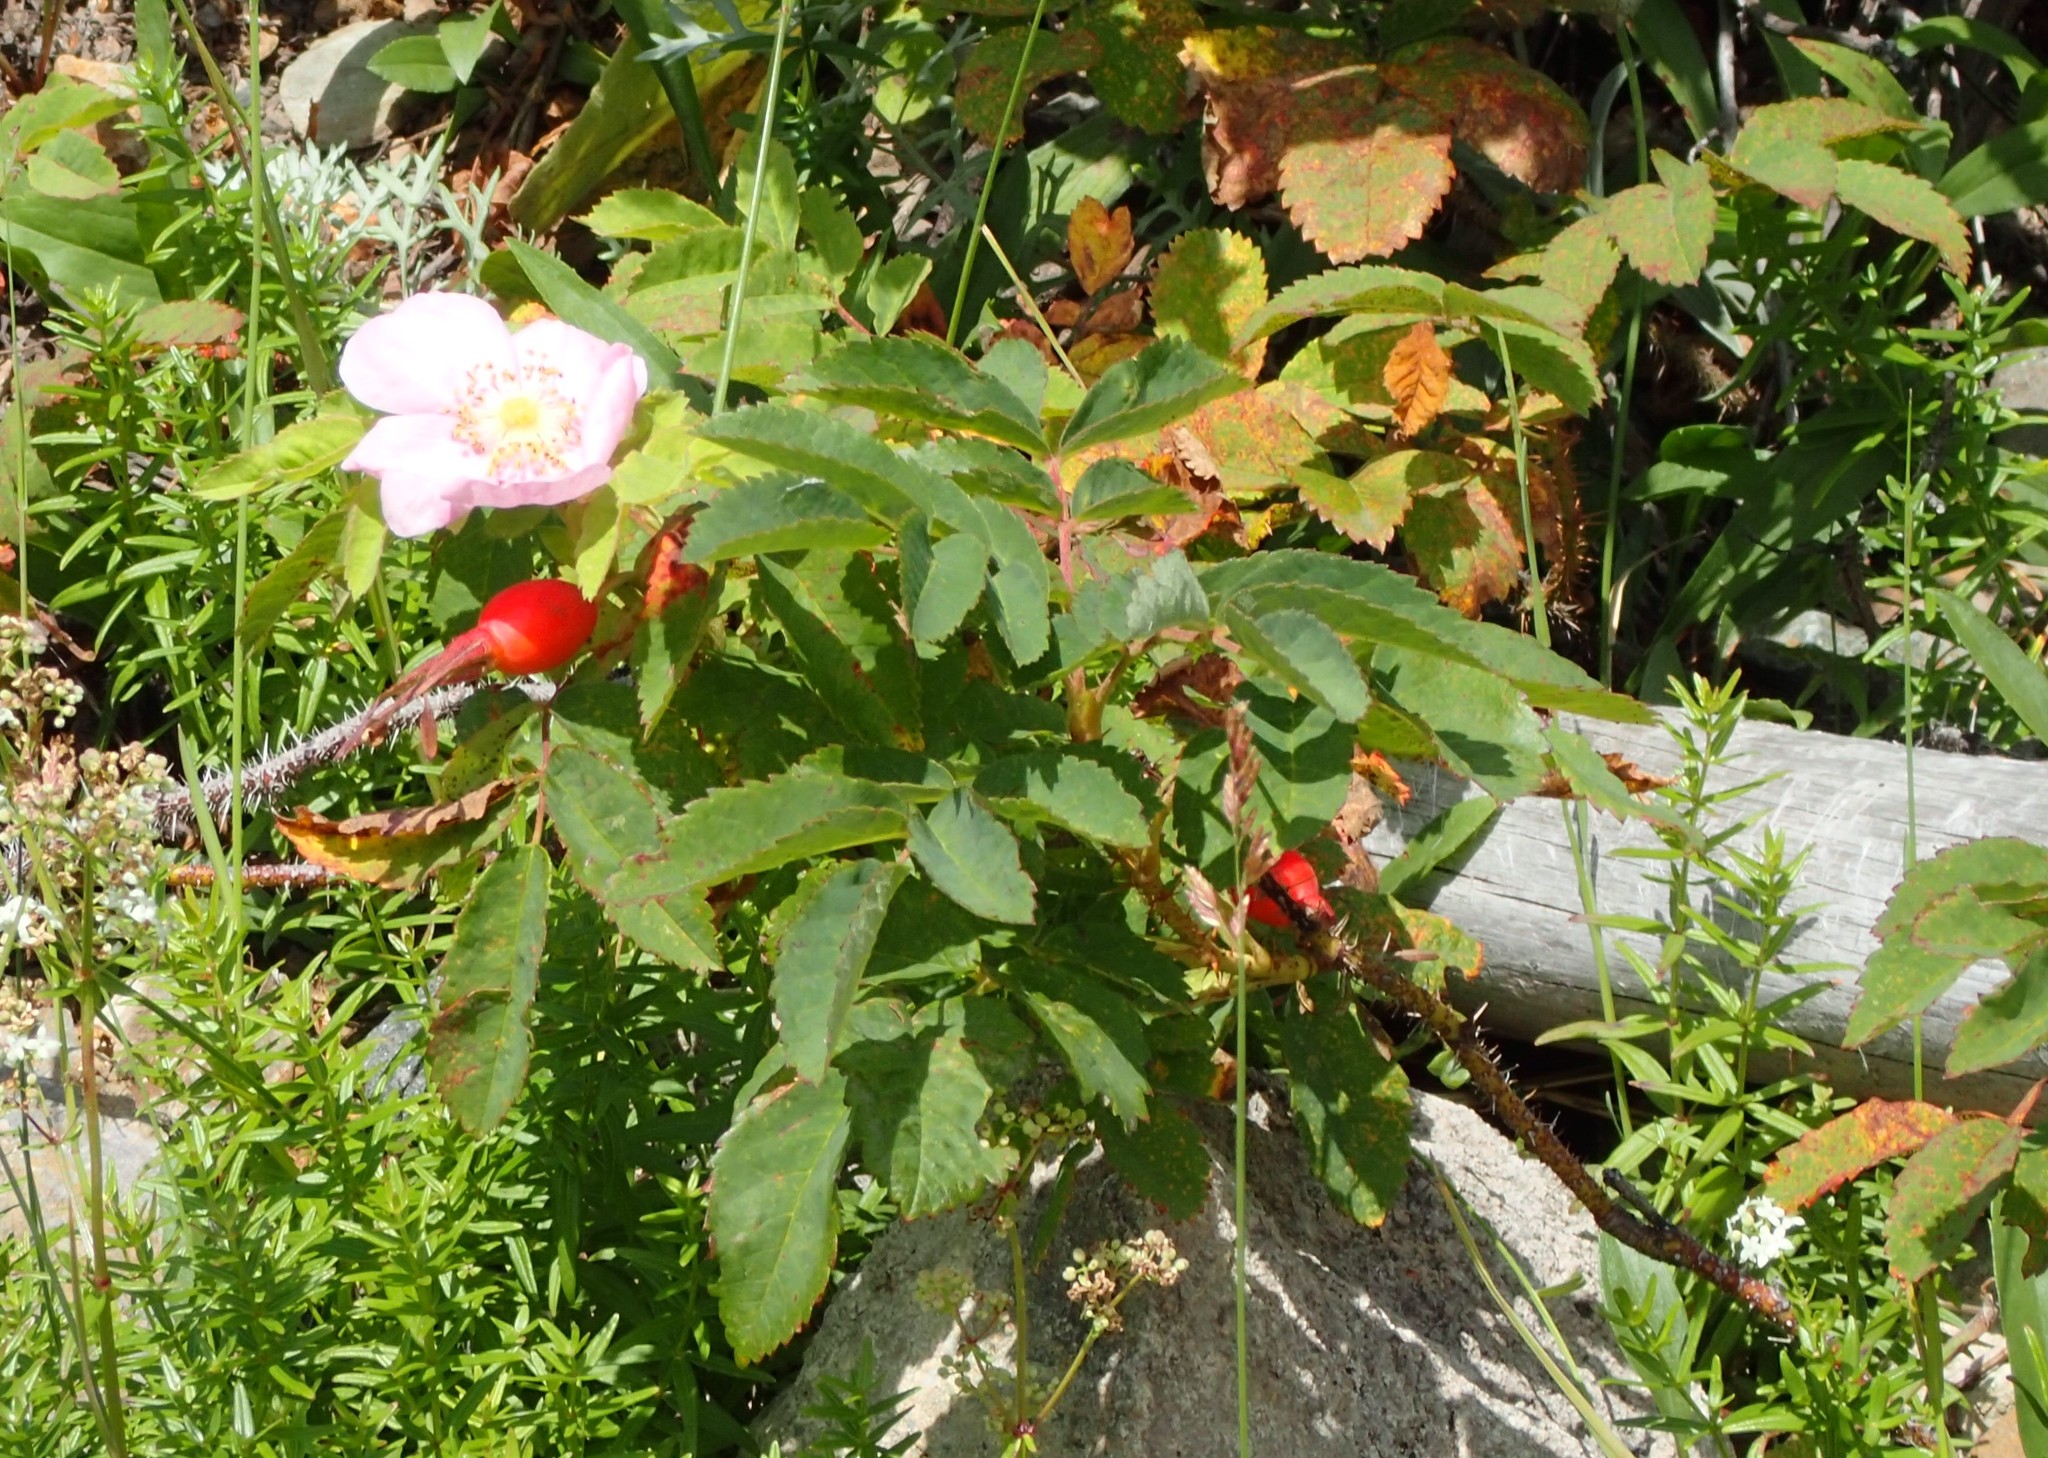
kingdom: Plantae
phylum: Tracheophyta
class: Magnoliopsida
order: Rosales
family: Rosaceae
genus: Rosa
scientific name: Rosa acicularis
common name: Prickly rose
